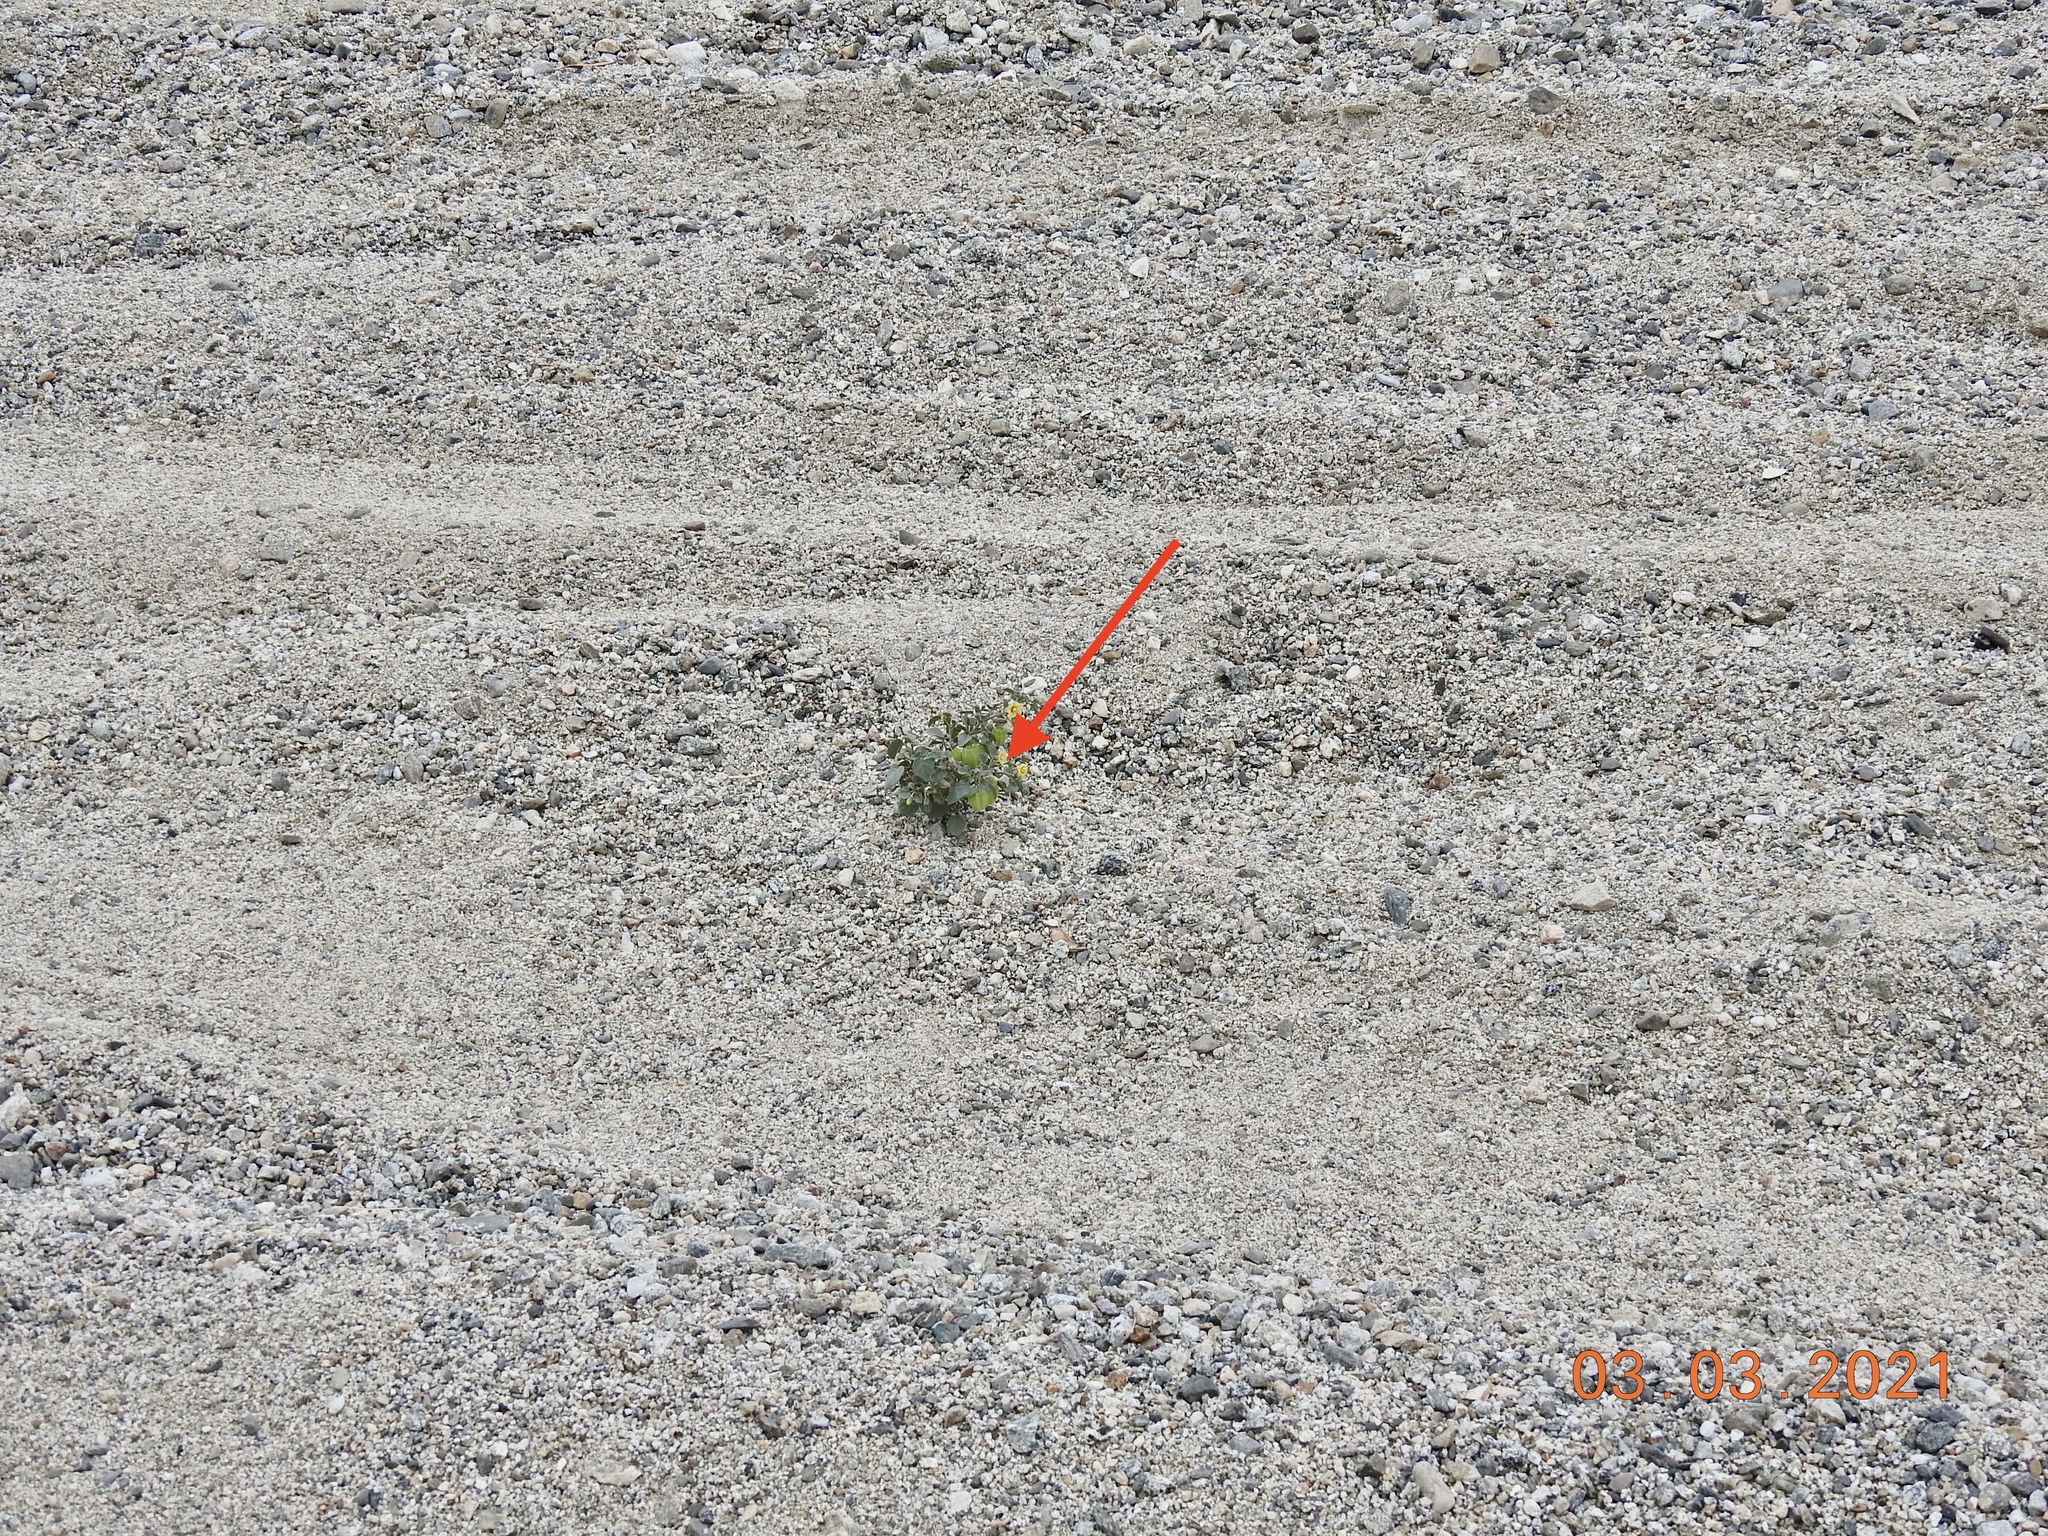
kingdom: Plantae
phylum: Tracheophyta
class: Magnoliopsida
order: Solanales
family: Solanaceae
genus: Physalis
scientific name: Physalis crassifolia
